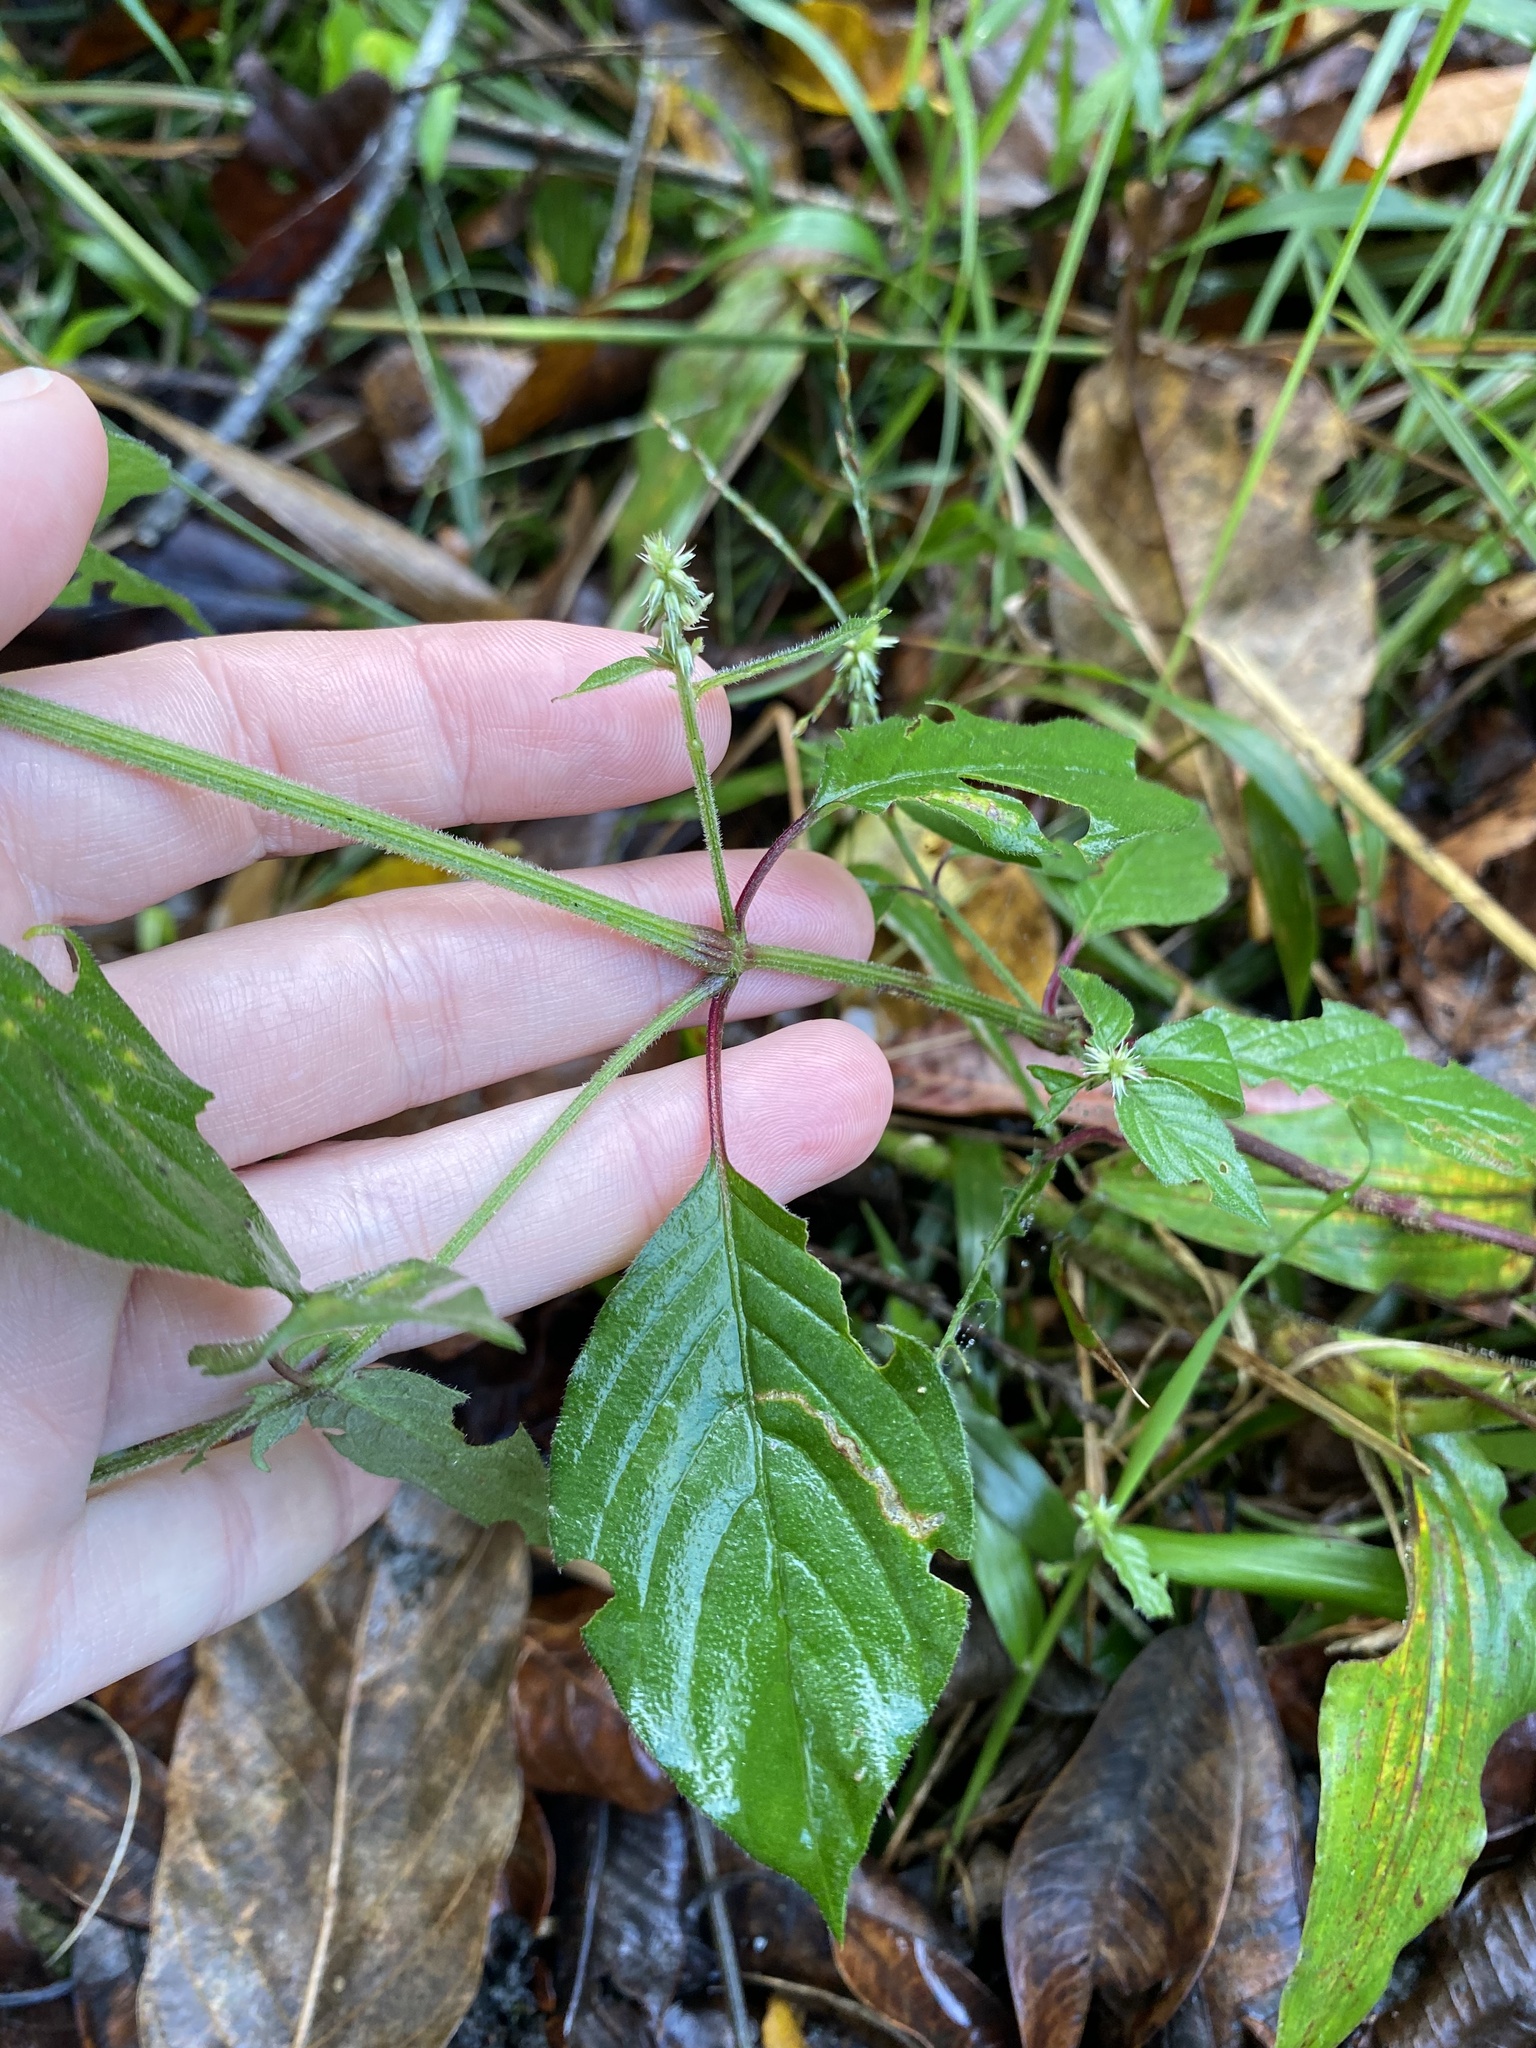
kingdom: Plantae
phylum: Tracheophyta
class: Magnoliopsida
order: Caryophyllales
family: Amaranthaceae
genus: Achyranthes
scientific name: Achyranthes aspera
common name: Devil's horsewhip
